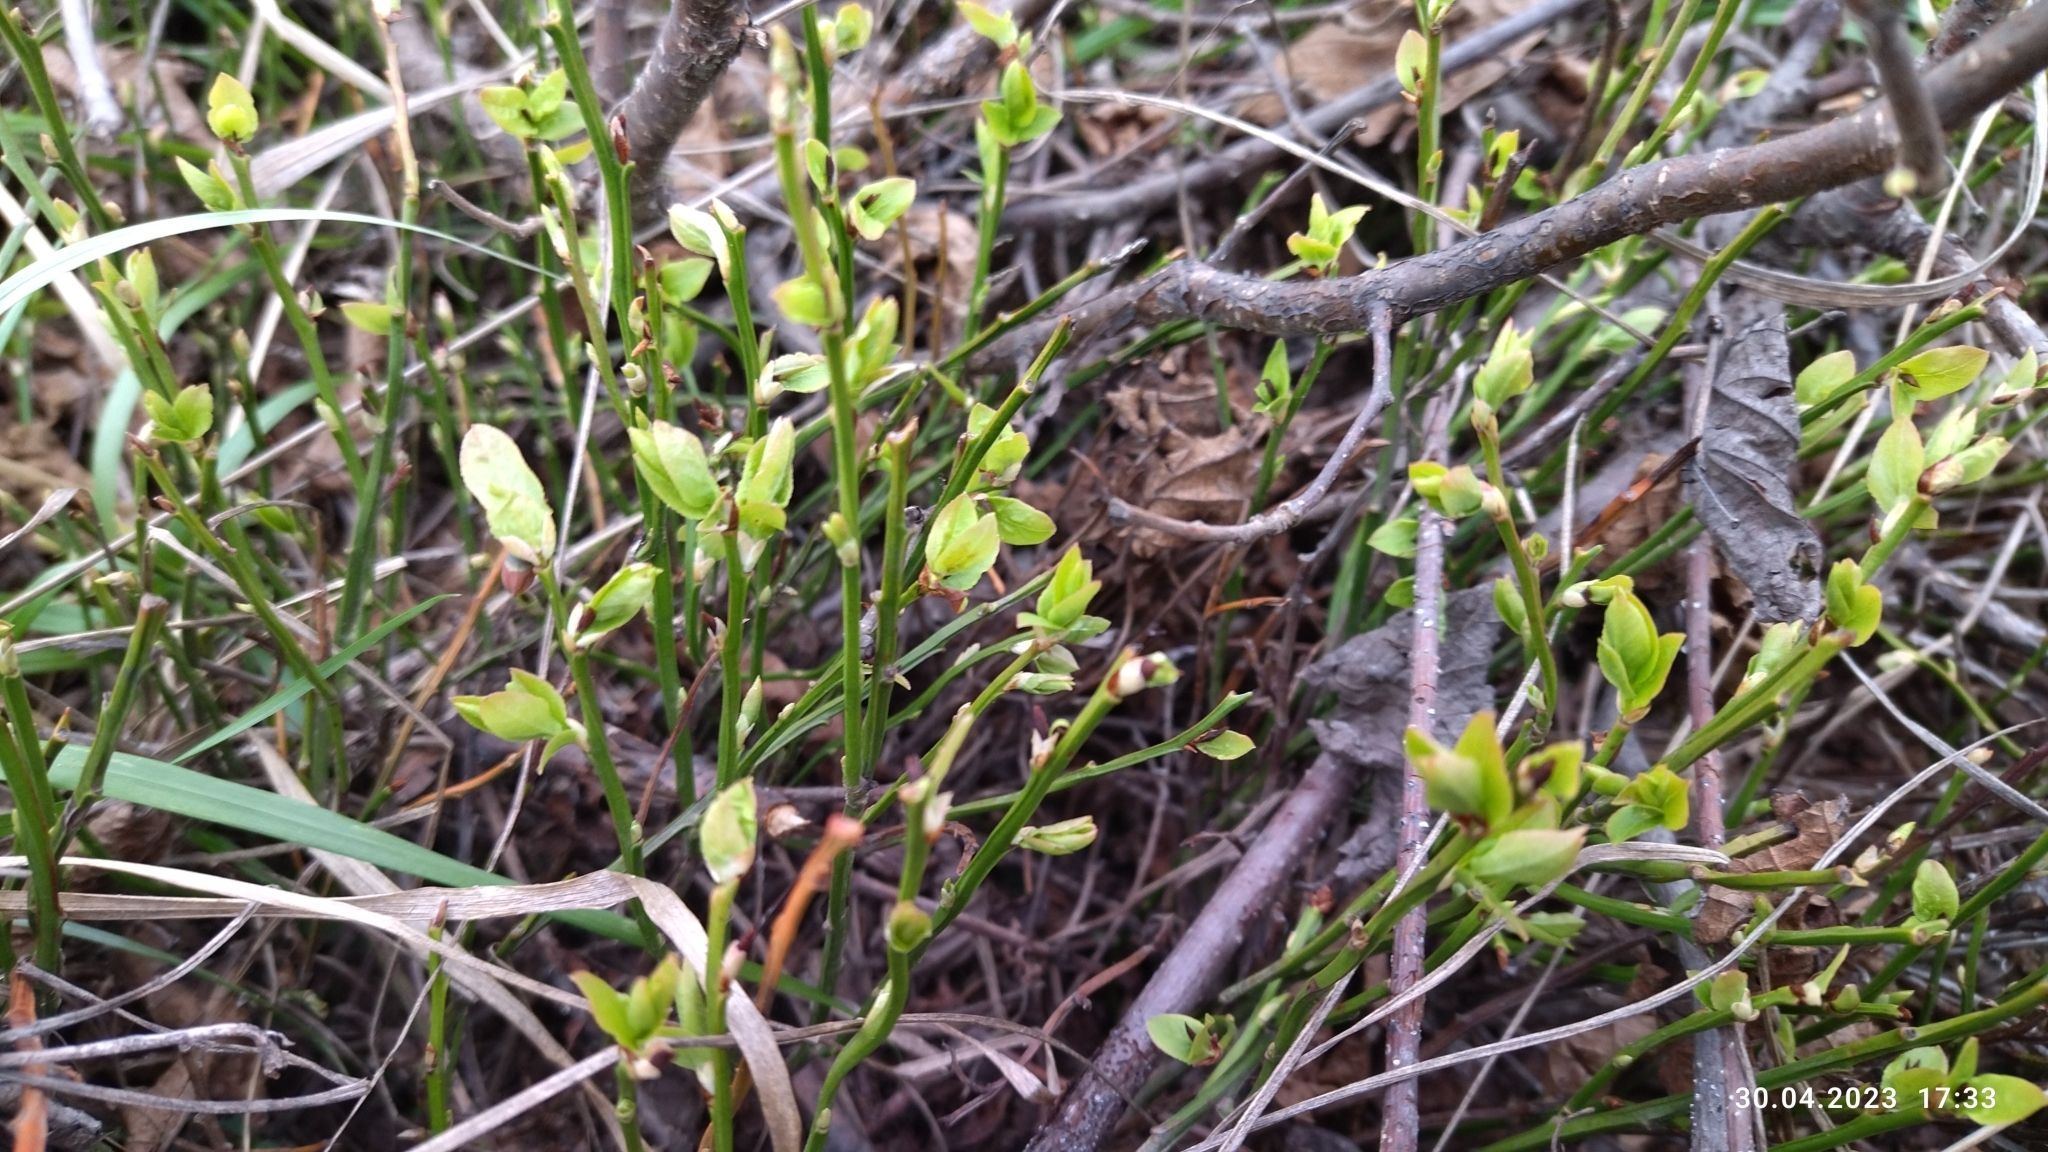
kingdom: Plantae
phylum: Tracheophyta
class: Magnoliopsida
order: Ericales
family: Ericaceae
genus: Vaccinium
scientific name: Vaccinium myrtillus
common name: Bilberry
